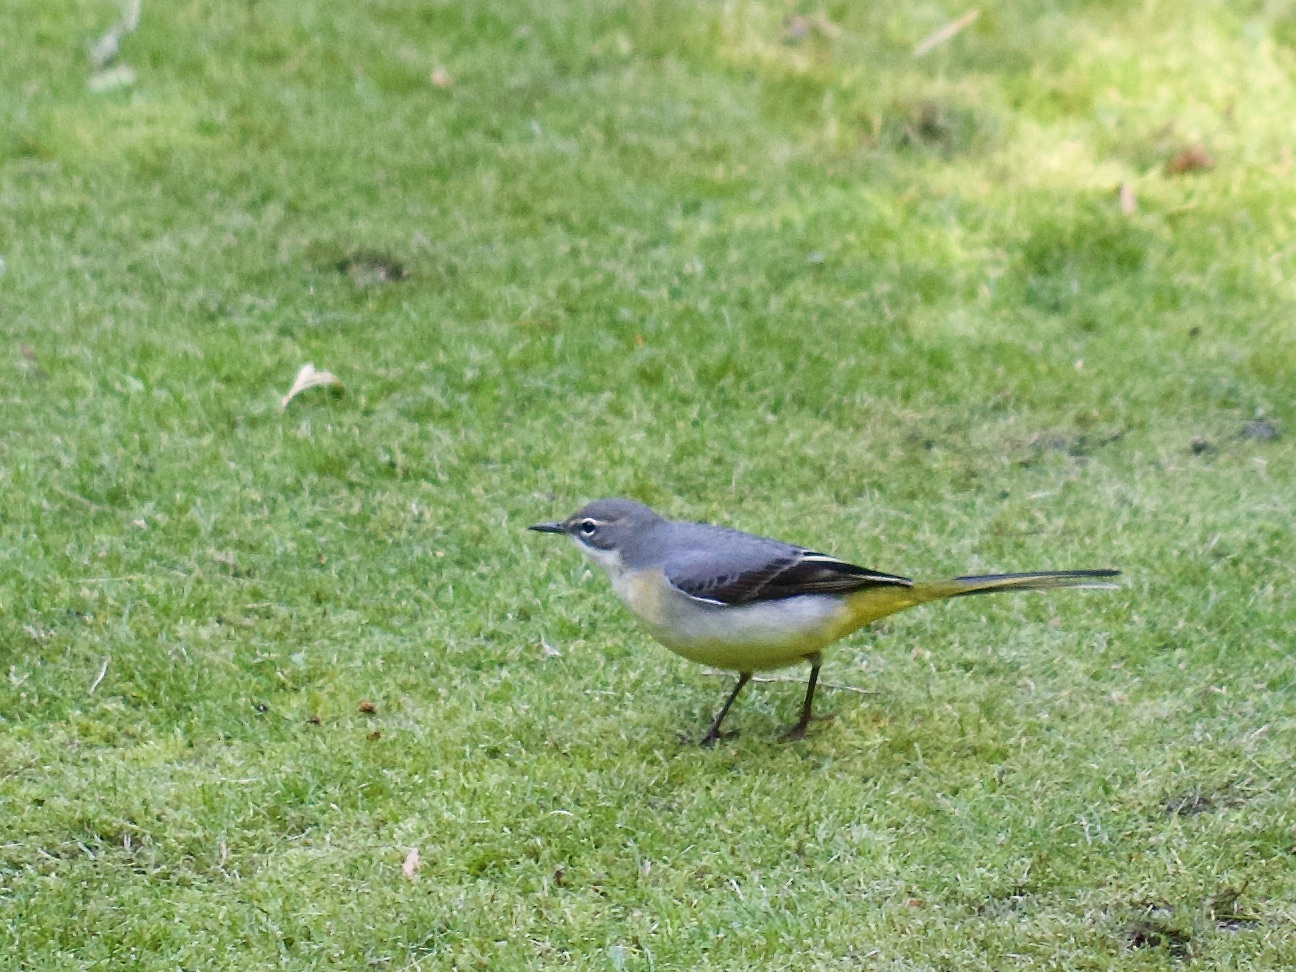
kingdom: Animalia
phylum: Chordata
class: Aves
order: Passeriformes
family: Motacillidae
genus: Motacilla
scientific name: Motacilla cinerea
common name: Grey wagtail
